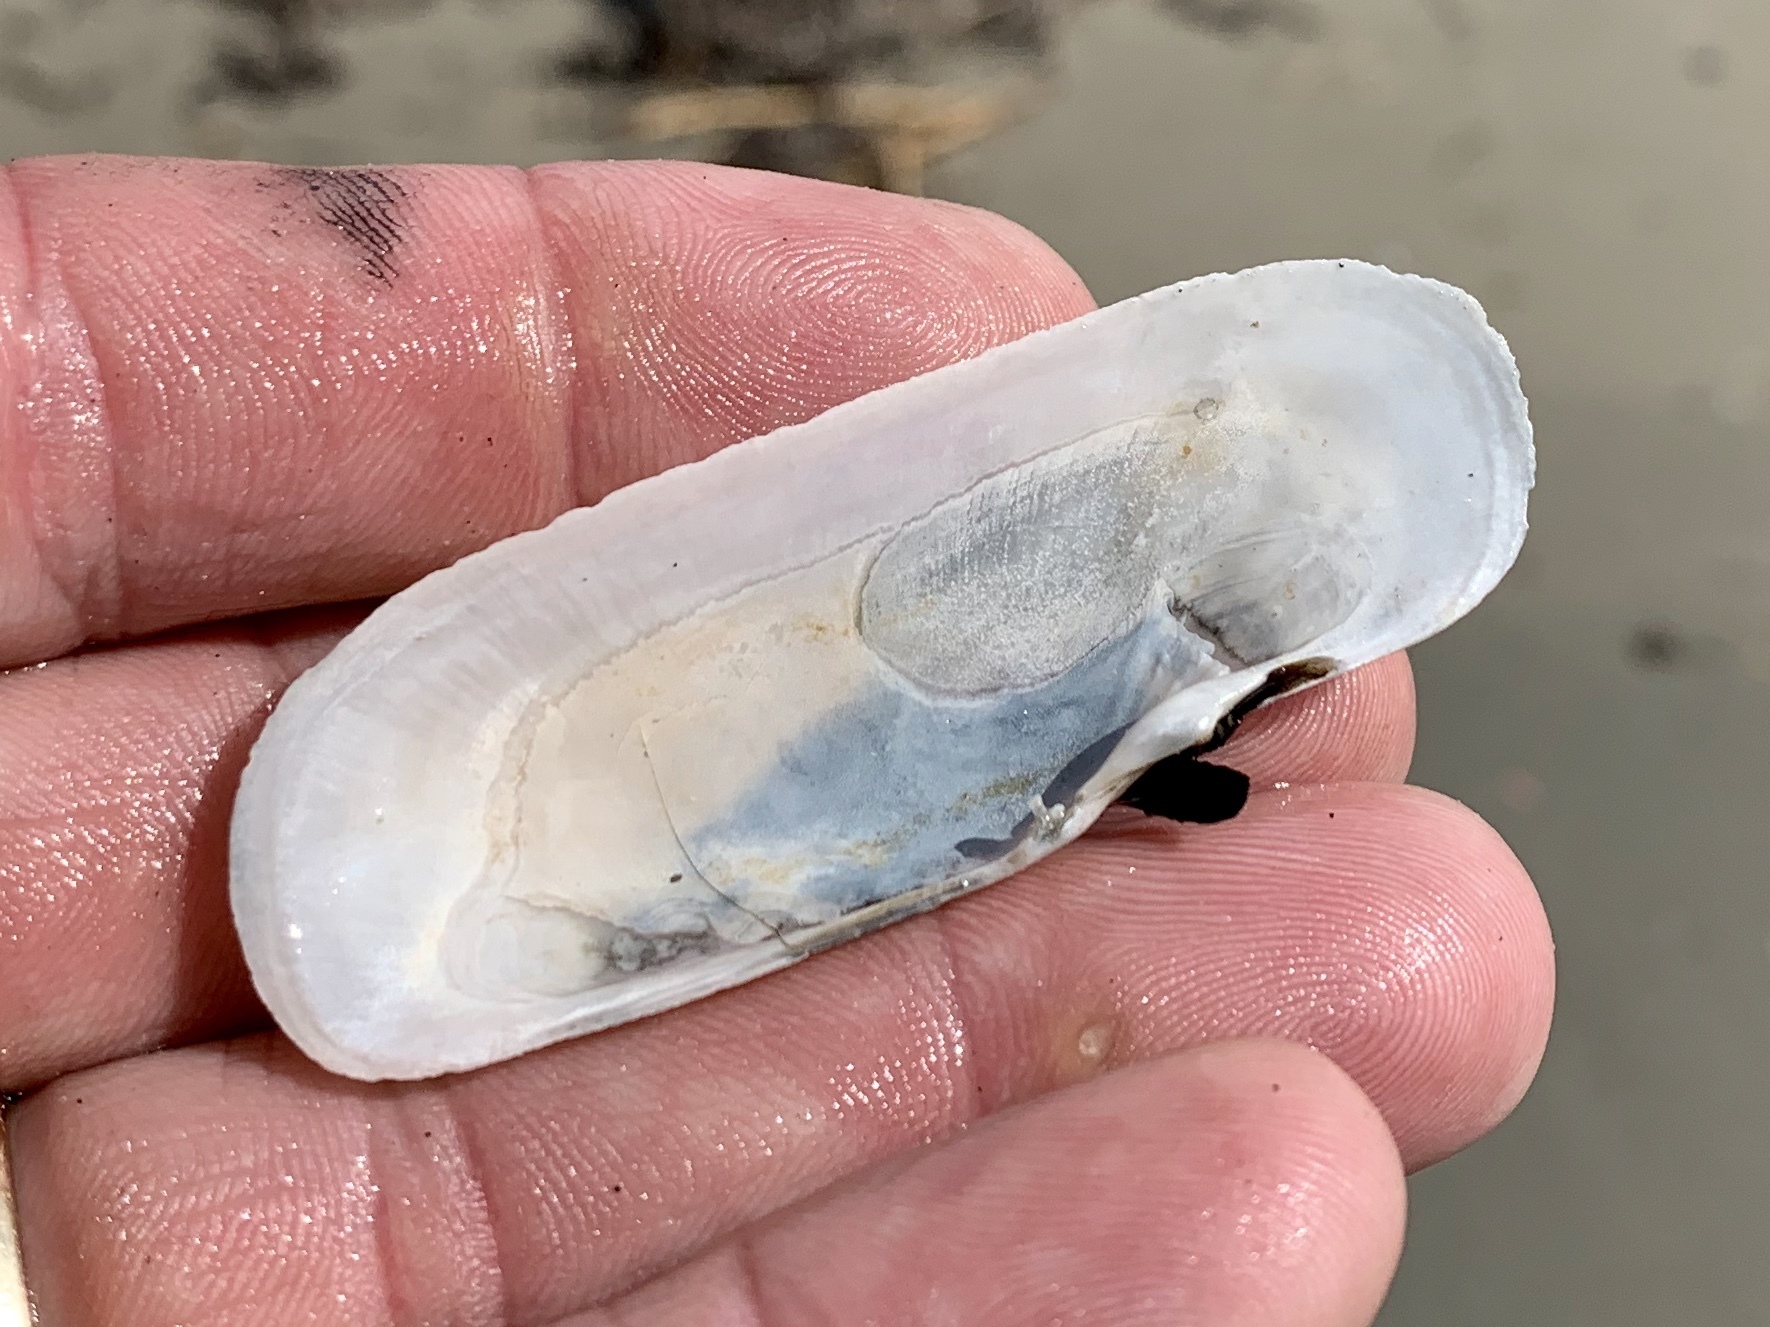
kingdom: Animalia
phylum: Mollusca
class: Bivalvia
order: Cardiida
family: Solecurtidae
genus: Tagelus
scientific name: Tagelus plebeius
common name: Stout tagelus
